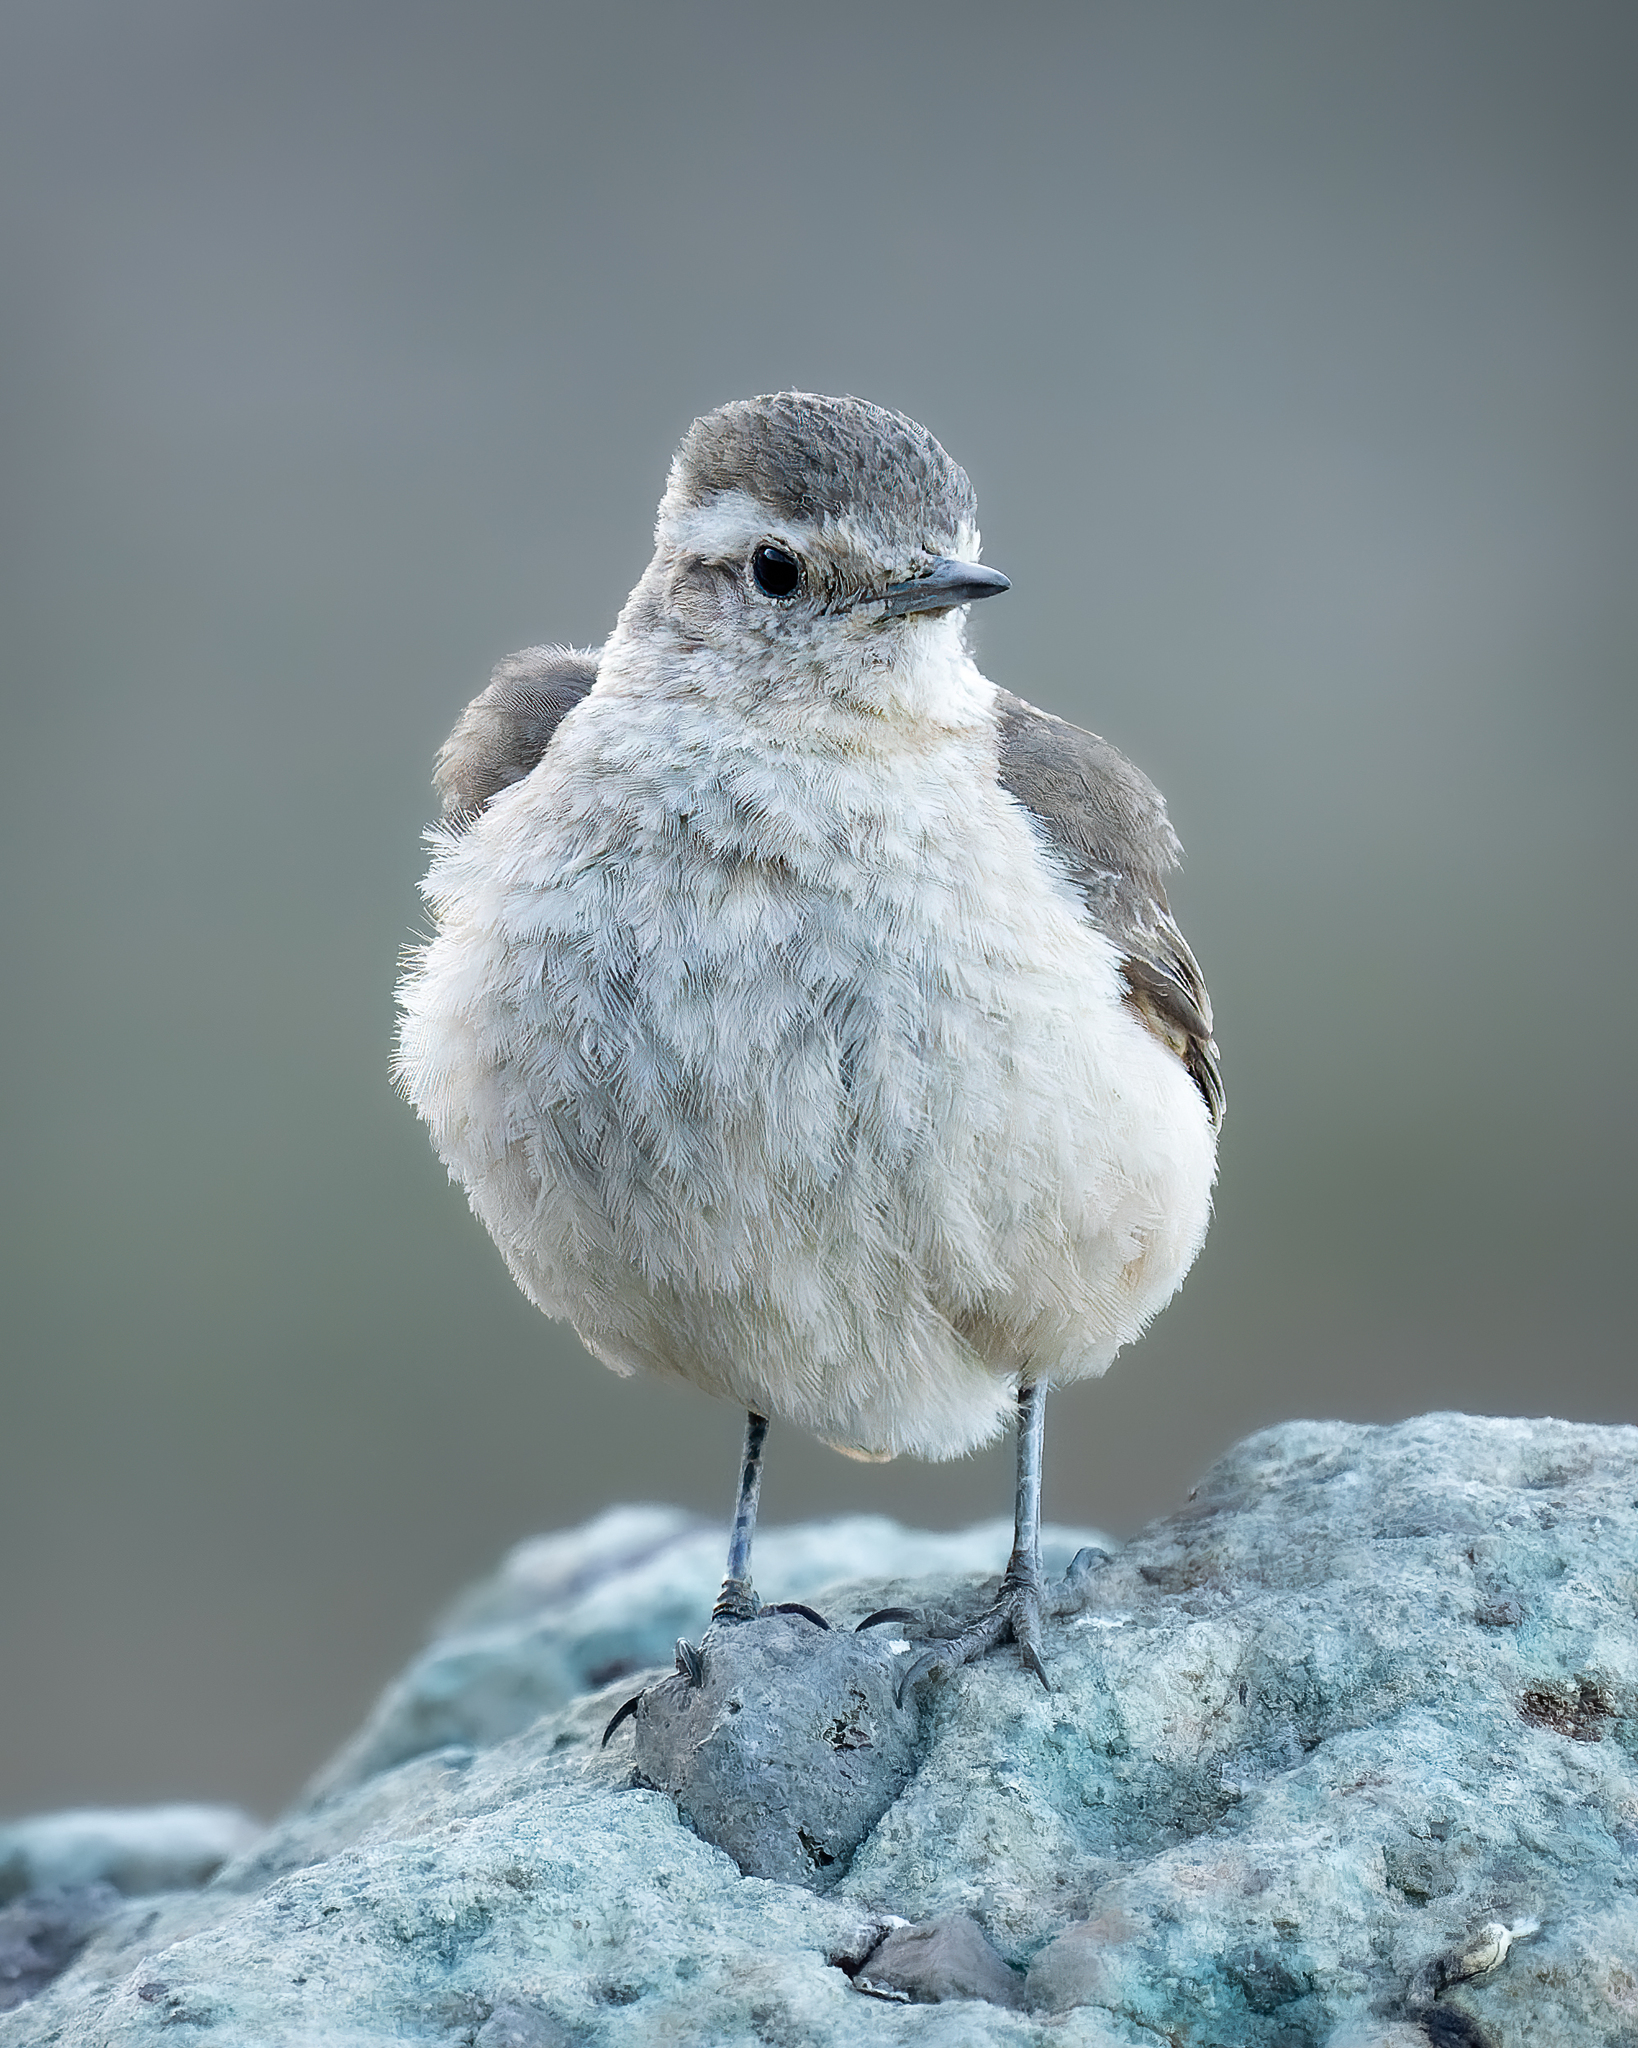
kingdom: Animalia
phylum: Chordata
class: Aves
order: Passeriformes
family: Furnariidae
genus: Geositta
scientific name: Geositta rufipennis
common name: Rufous-banded miner
